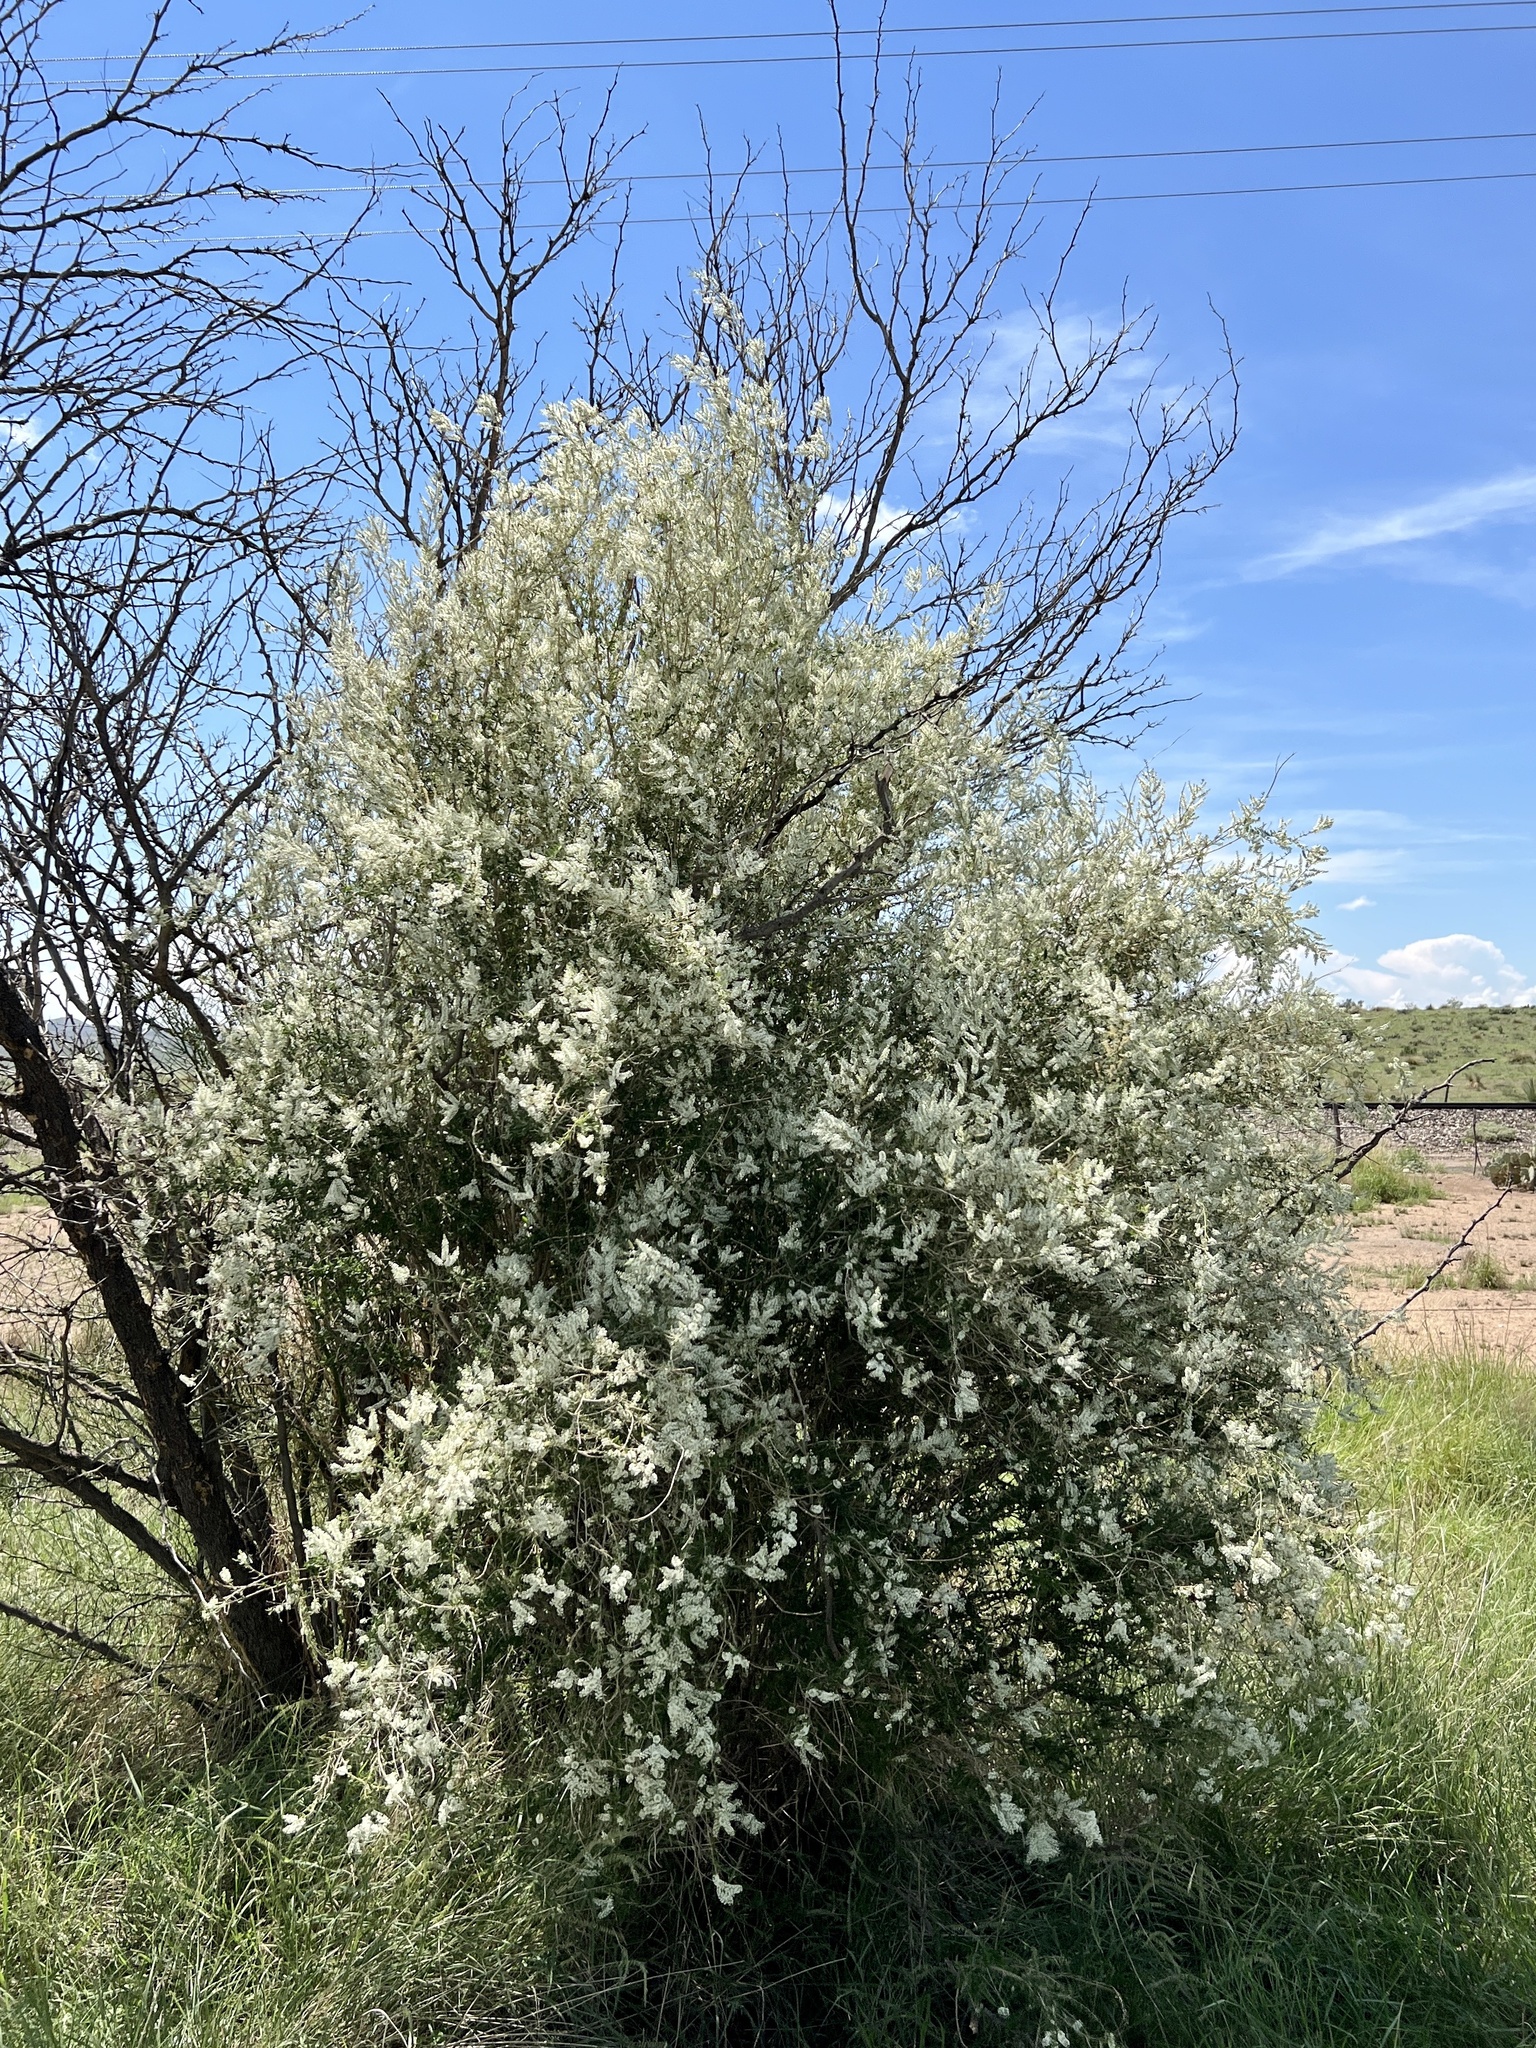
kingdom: Plantae
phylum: Tracheophyta
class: Magnoliopsida
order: Lamiales
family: Verbenaceae
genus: Aloysia
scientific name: Aloysia gratissima
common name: Common bee-brush
